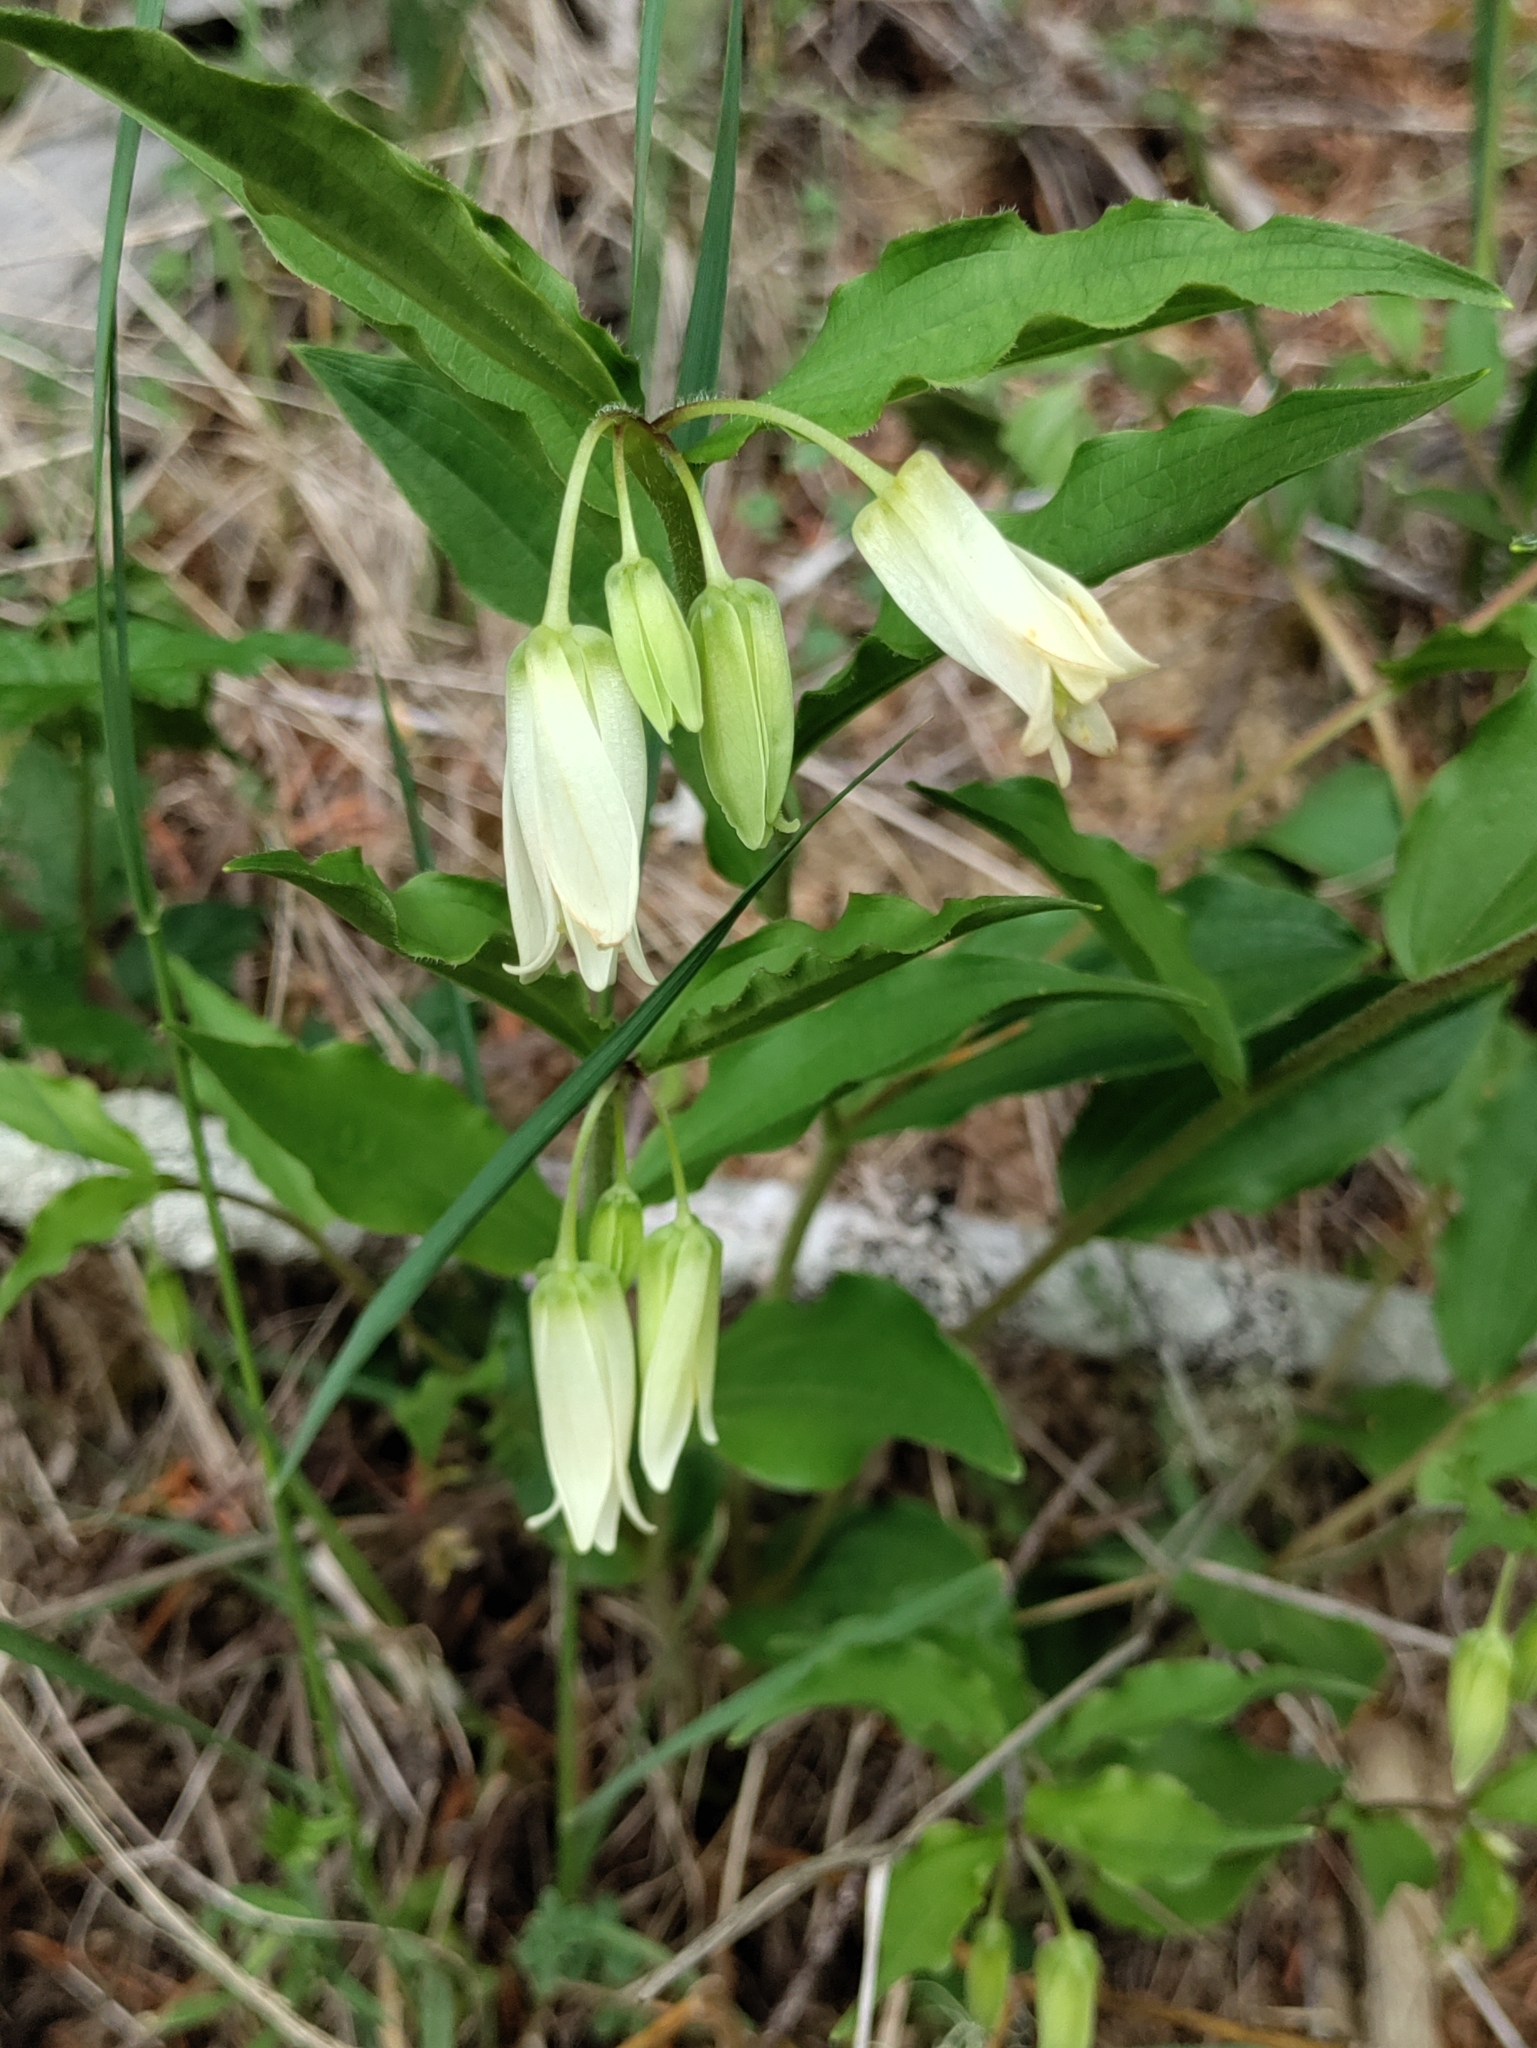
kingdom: Plantae
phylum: Tracheophyta
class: Liliopsida
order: Liliales
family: Liliaceae
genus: Prosartes
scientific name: Prosartes smithii
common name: Fairy-lantern
